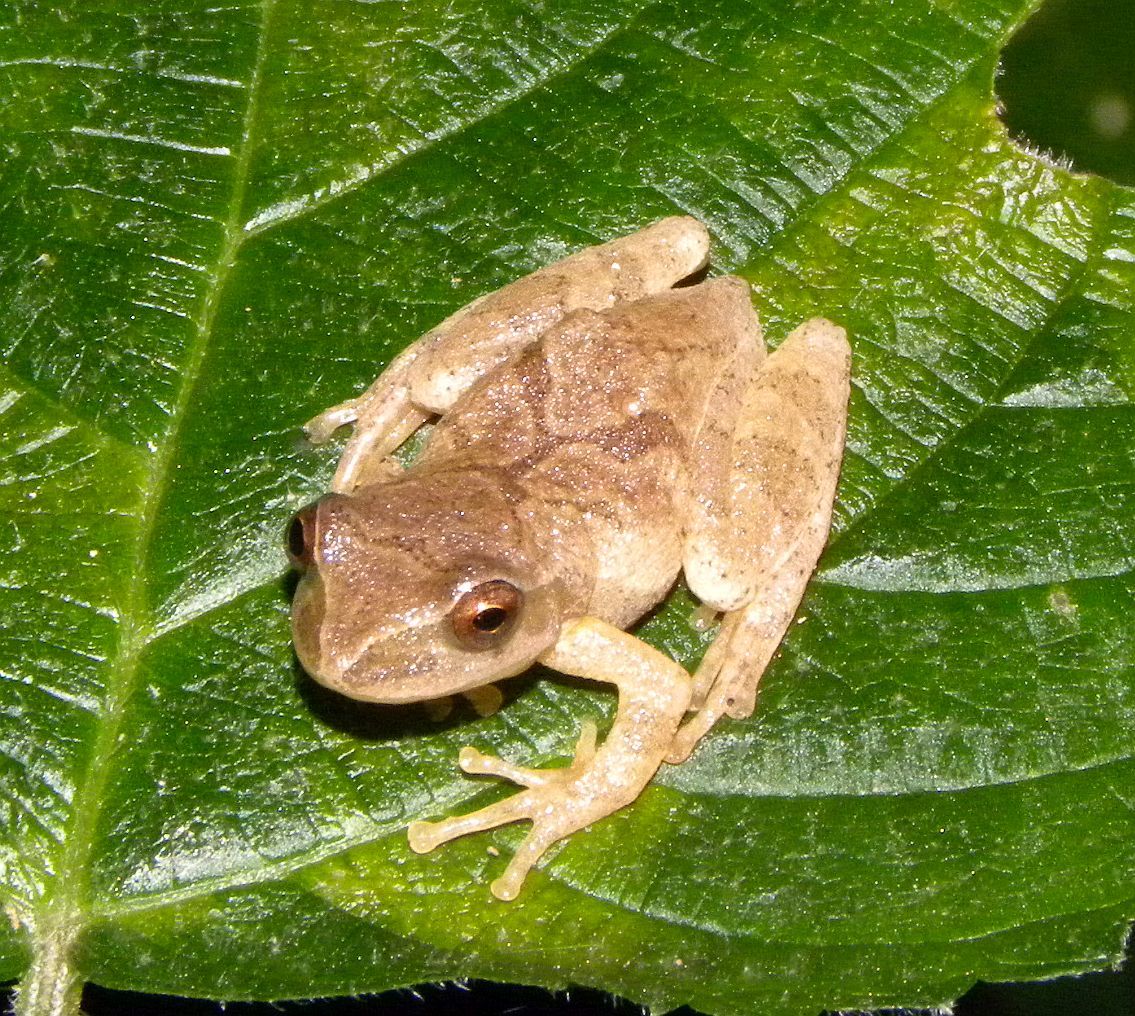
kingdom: Animalia
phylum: Chordata
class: Amphibia
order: Anura
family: Hylidae
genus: Pseudacris
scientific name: Pseudacris crucifer
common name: Spring peeper
